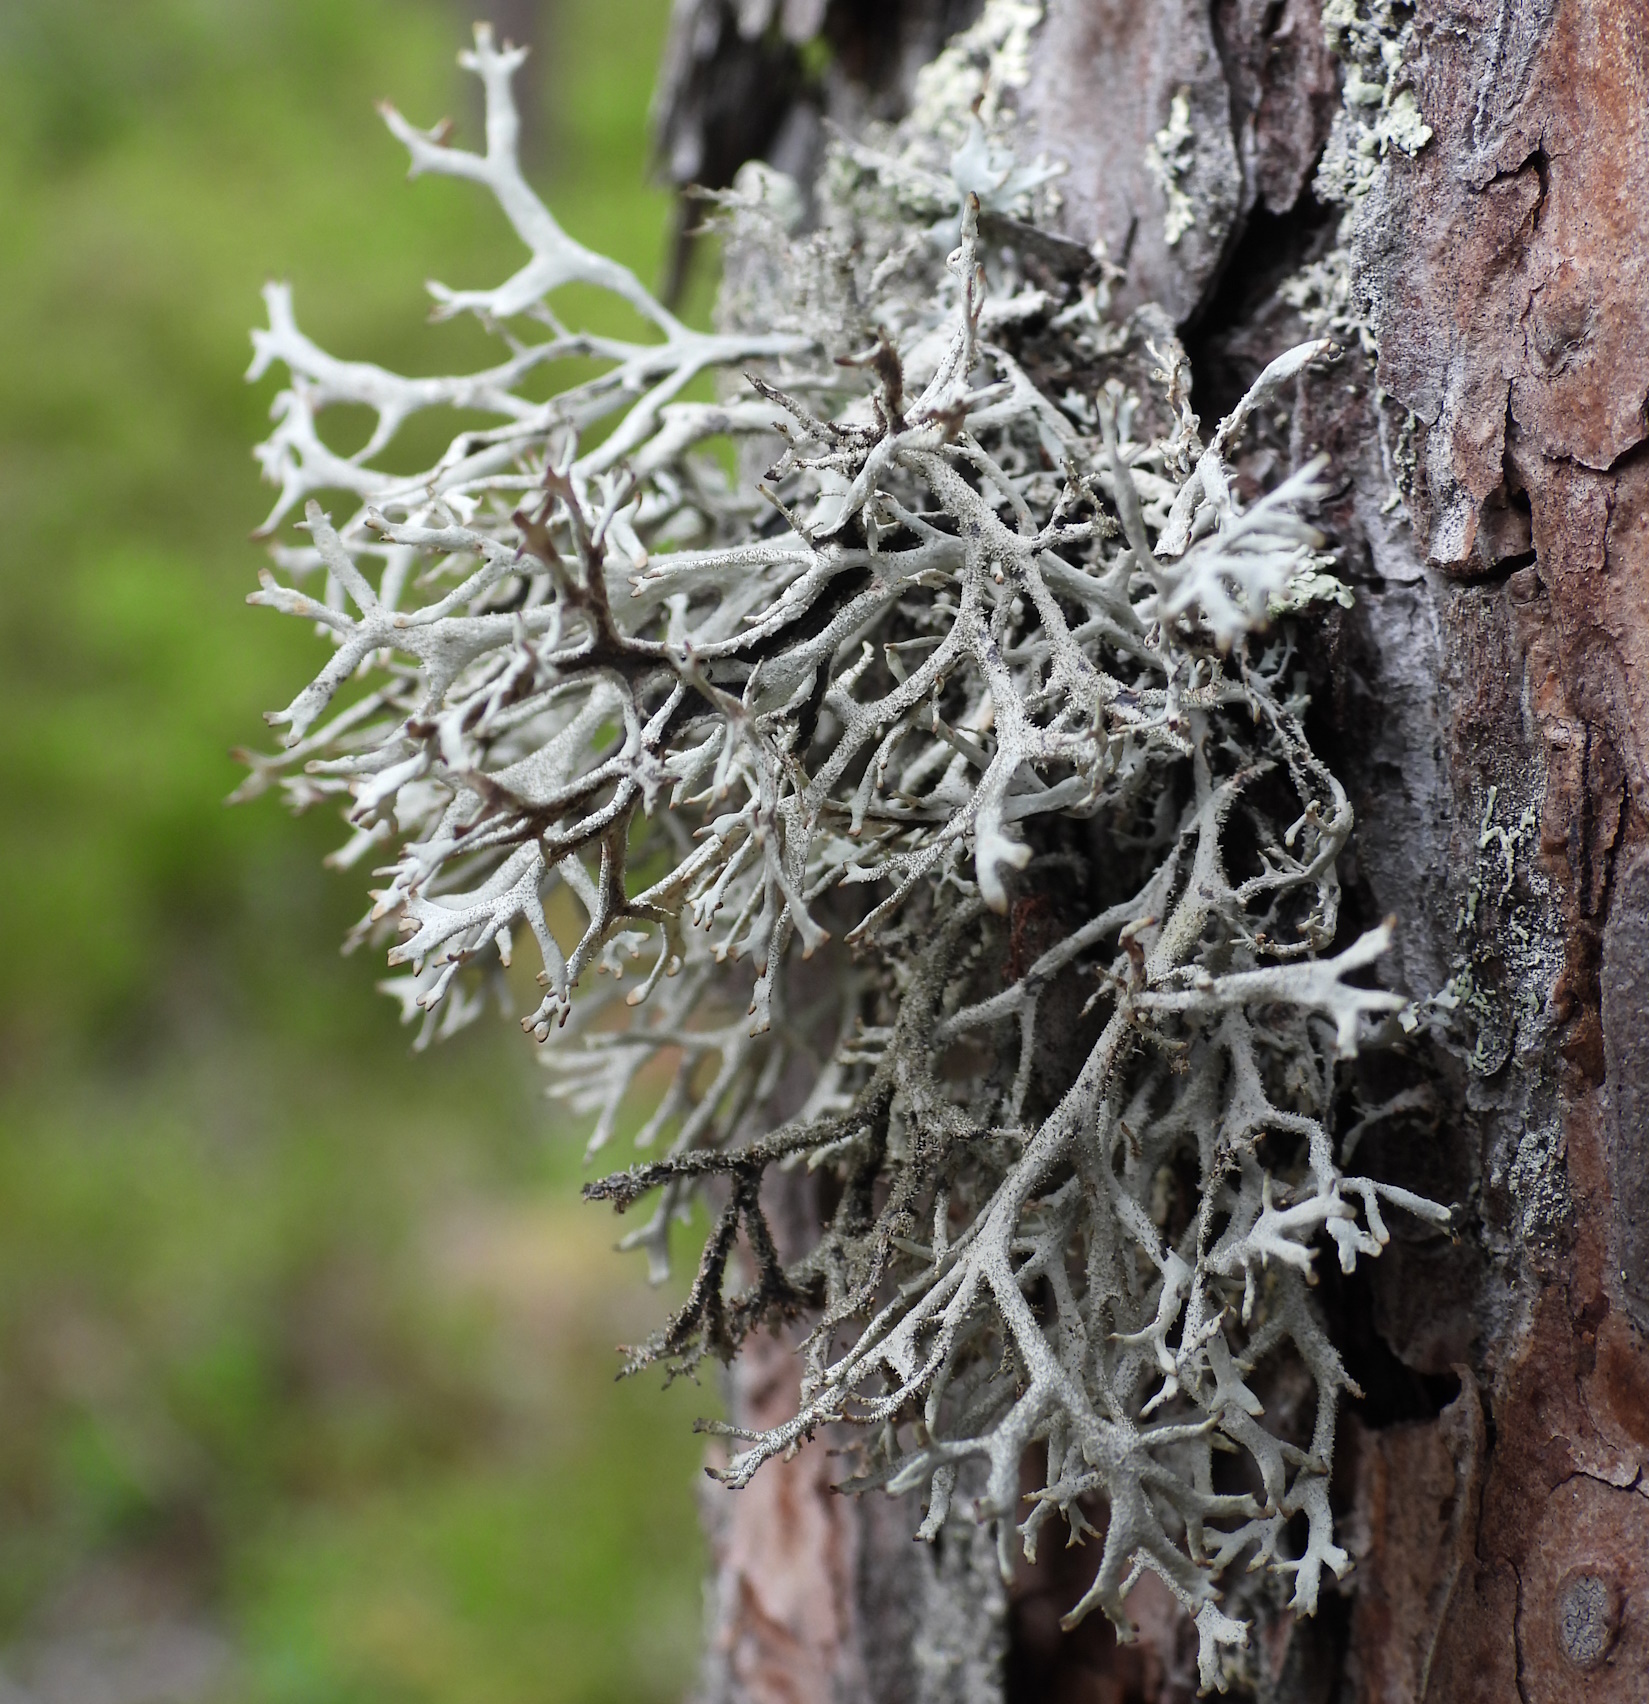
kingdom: Fungi
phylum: Ascomycota
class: Lecanoromycetes
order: Lecanorales
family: Parmeliaceae
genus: Pseudevernia
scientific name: Pseudevernia furfuracea
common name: Tree moss
